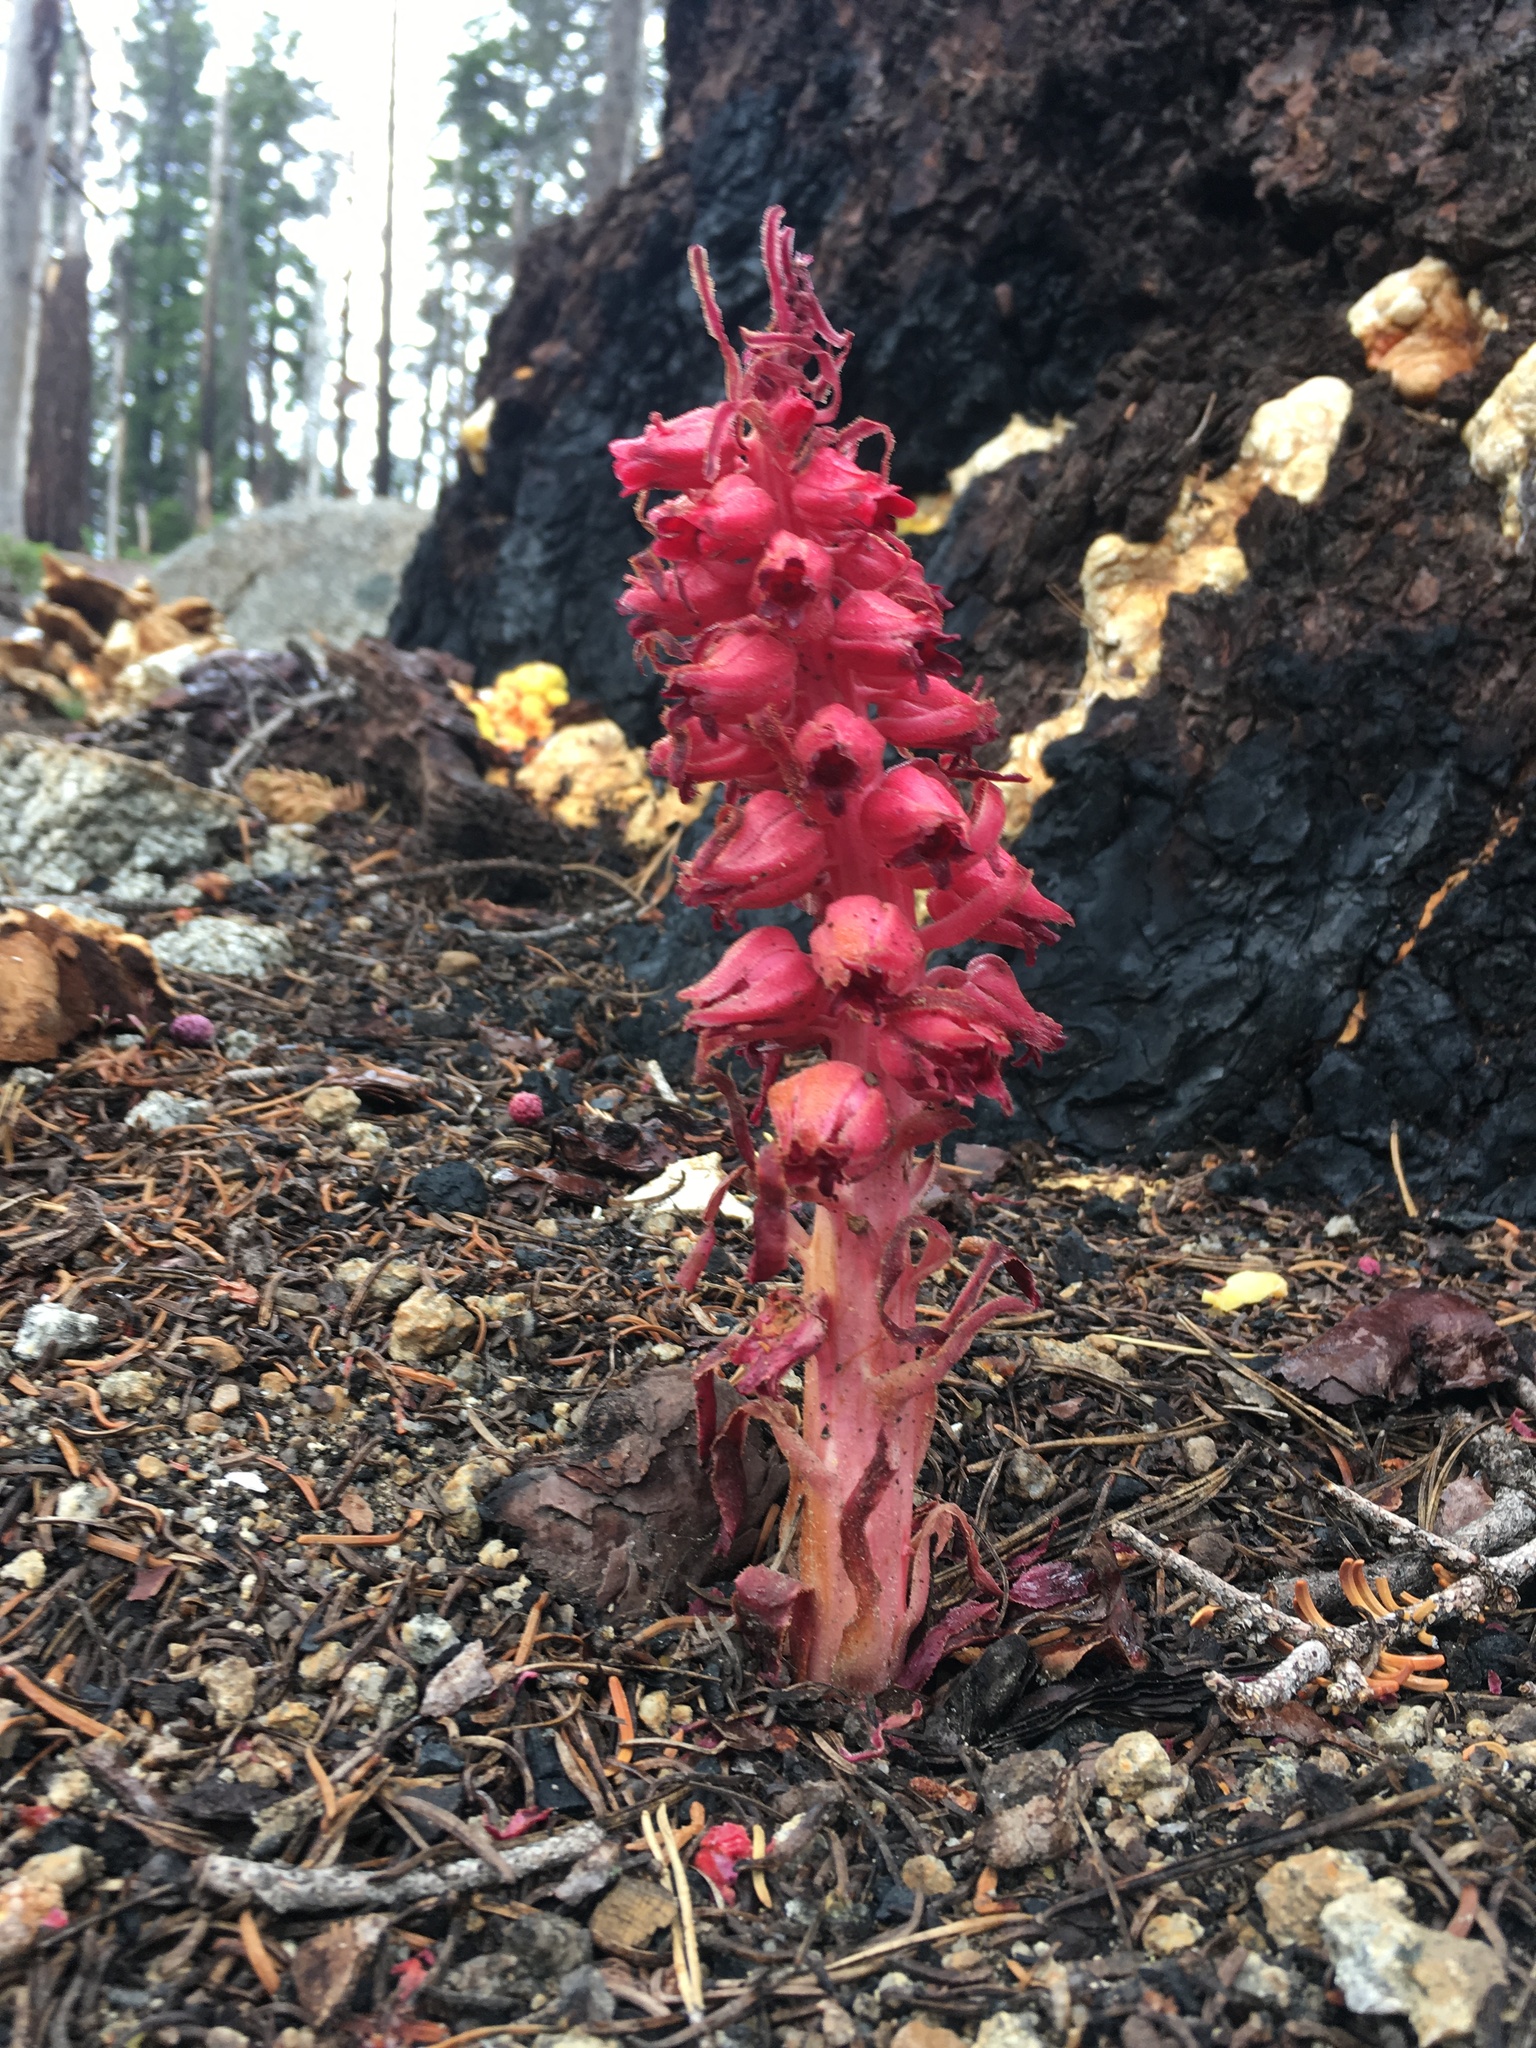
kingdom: Plantae
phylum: Tracheophyta
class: Magnoliopsida
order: Ericales
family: Ericaceae
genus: Sarcodes
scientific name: Sarcodes sanguinea
